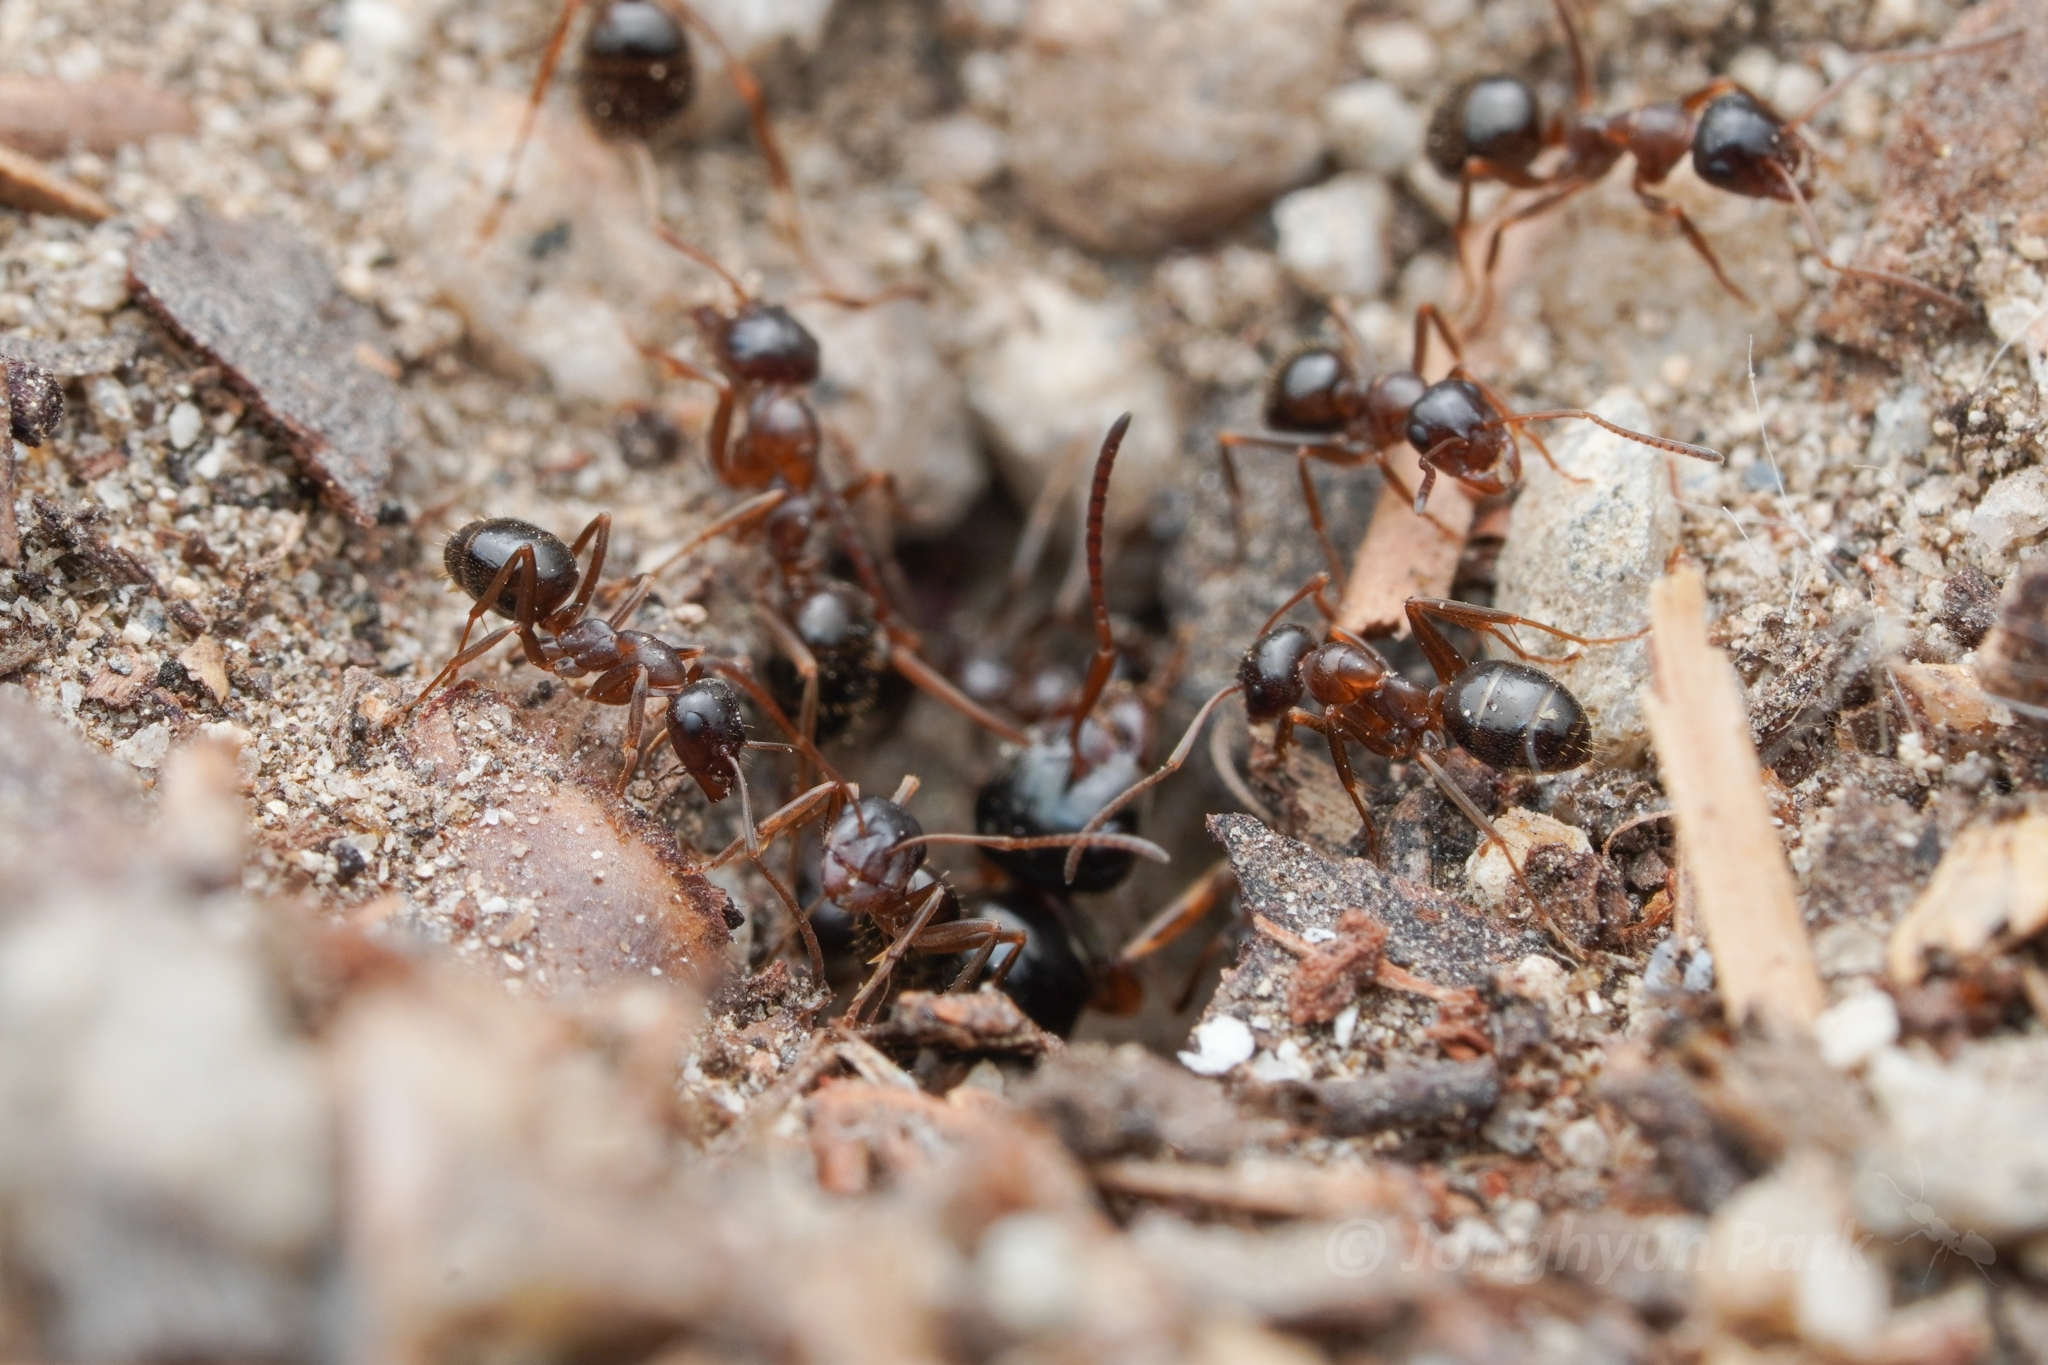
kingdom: Animalia
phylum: Arthropoda
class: Insecta
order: Hymenoptera
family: Formicidae
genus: Formica
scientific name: Formica subpolita
